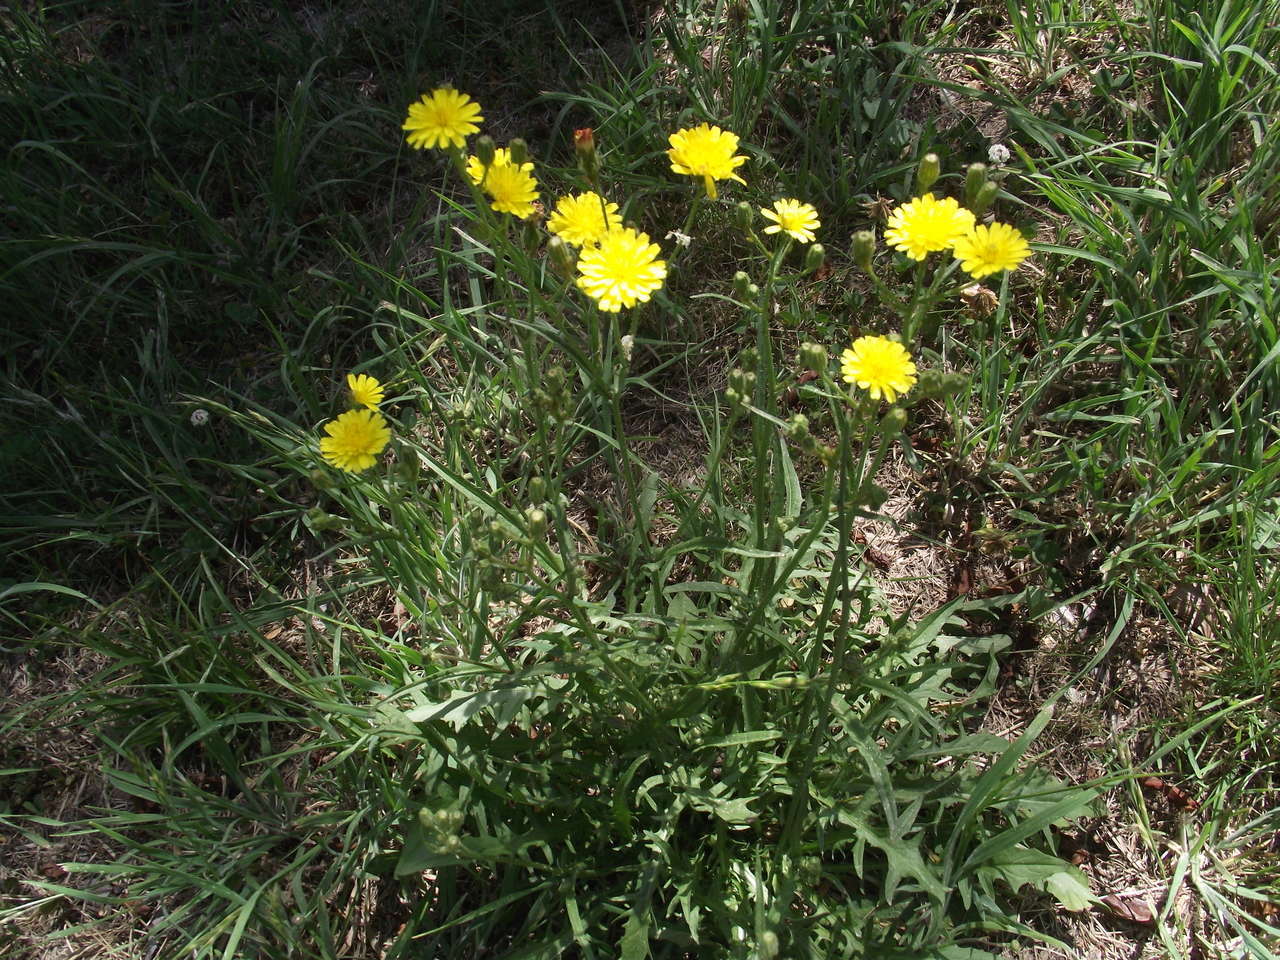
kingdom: Plantae
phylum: Tracheophyta
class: Magnoliopsida
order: Asterales
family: Asteraceae
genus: Crepis
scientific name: Crepis capillaris
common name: Smooth hawksbeard
